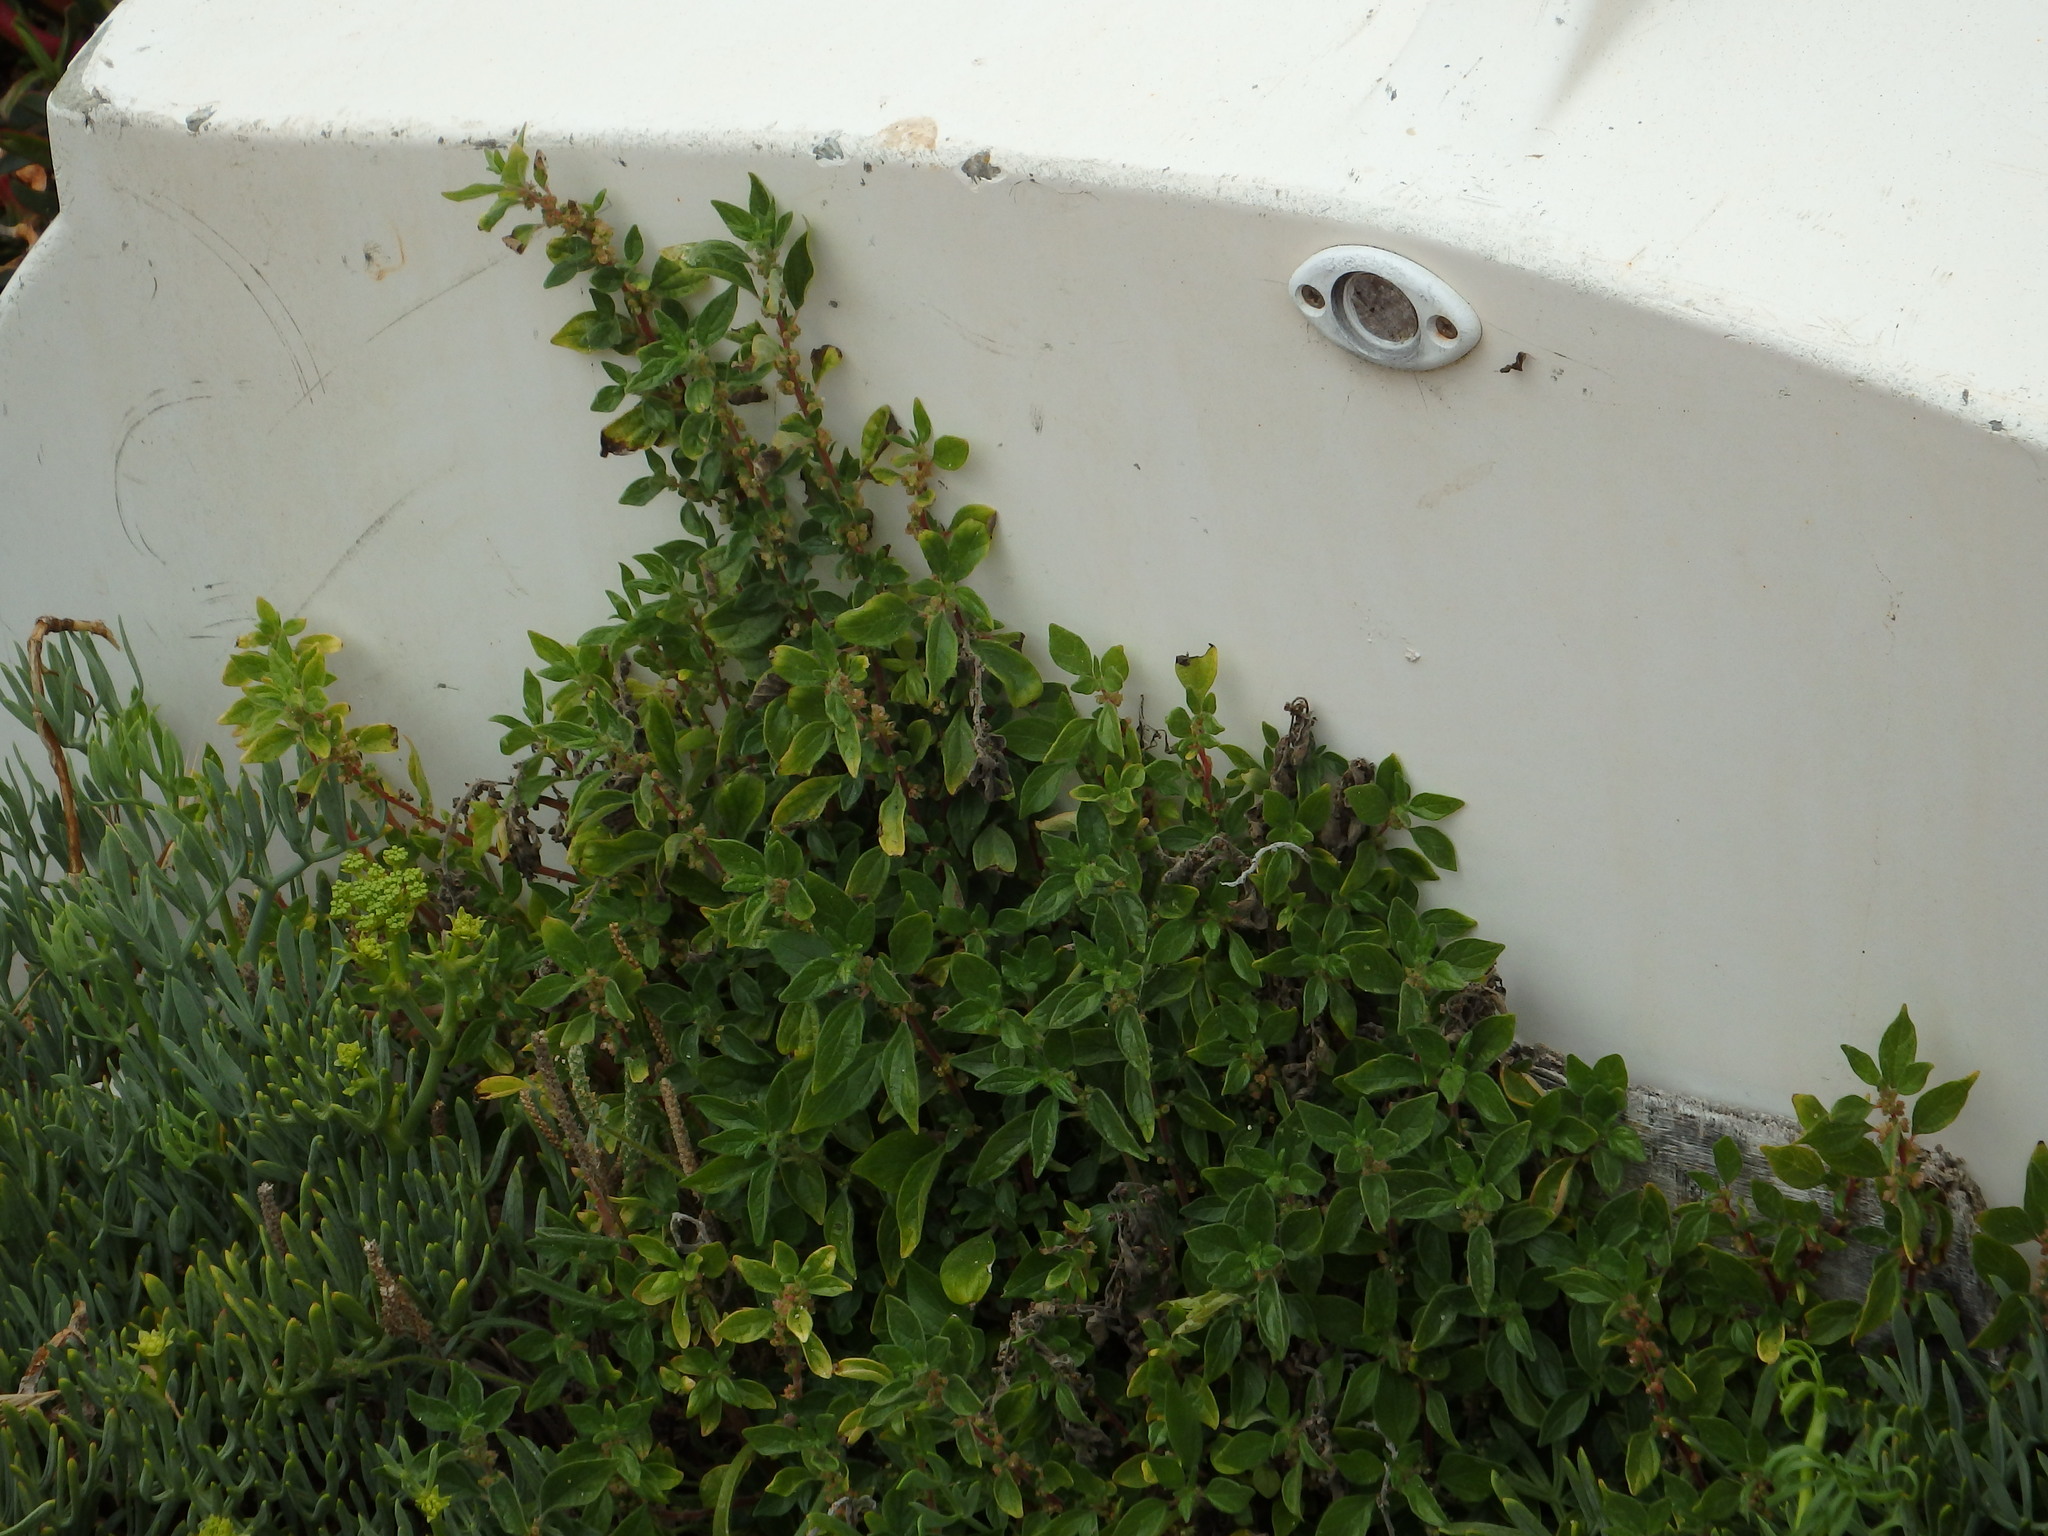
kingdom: Plantae
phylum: Tracheophyta
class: Magnoliopsida
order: Rosales
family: Urticaceae
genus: Parietaria
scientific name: Parietaria judaica
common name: Pellitory-of-the-wall
